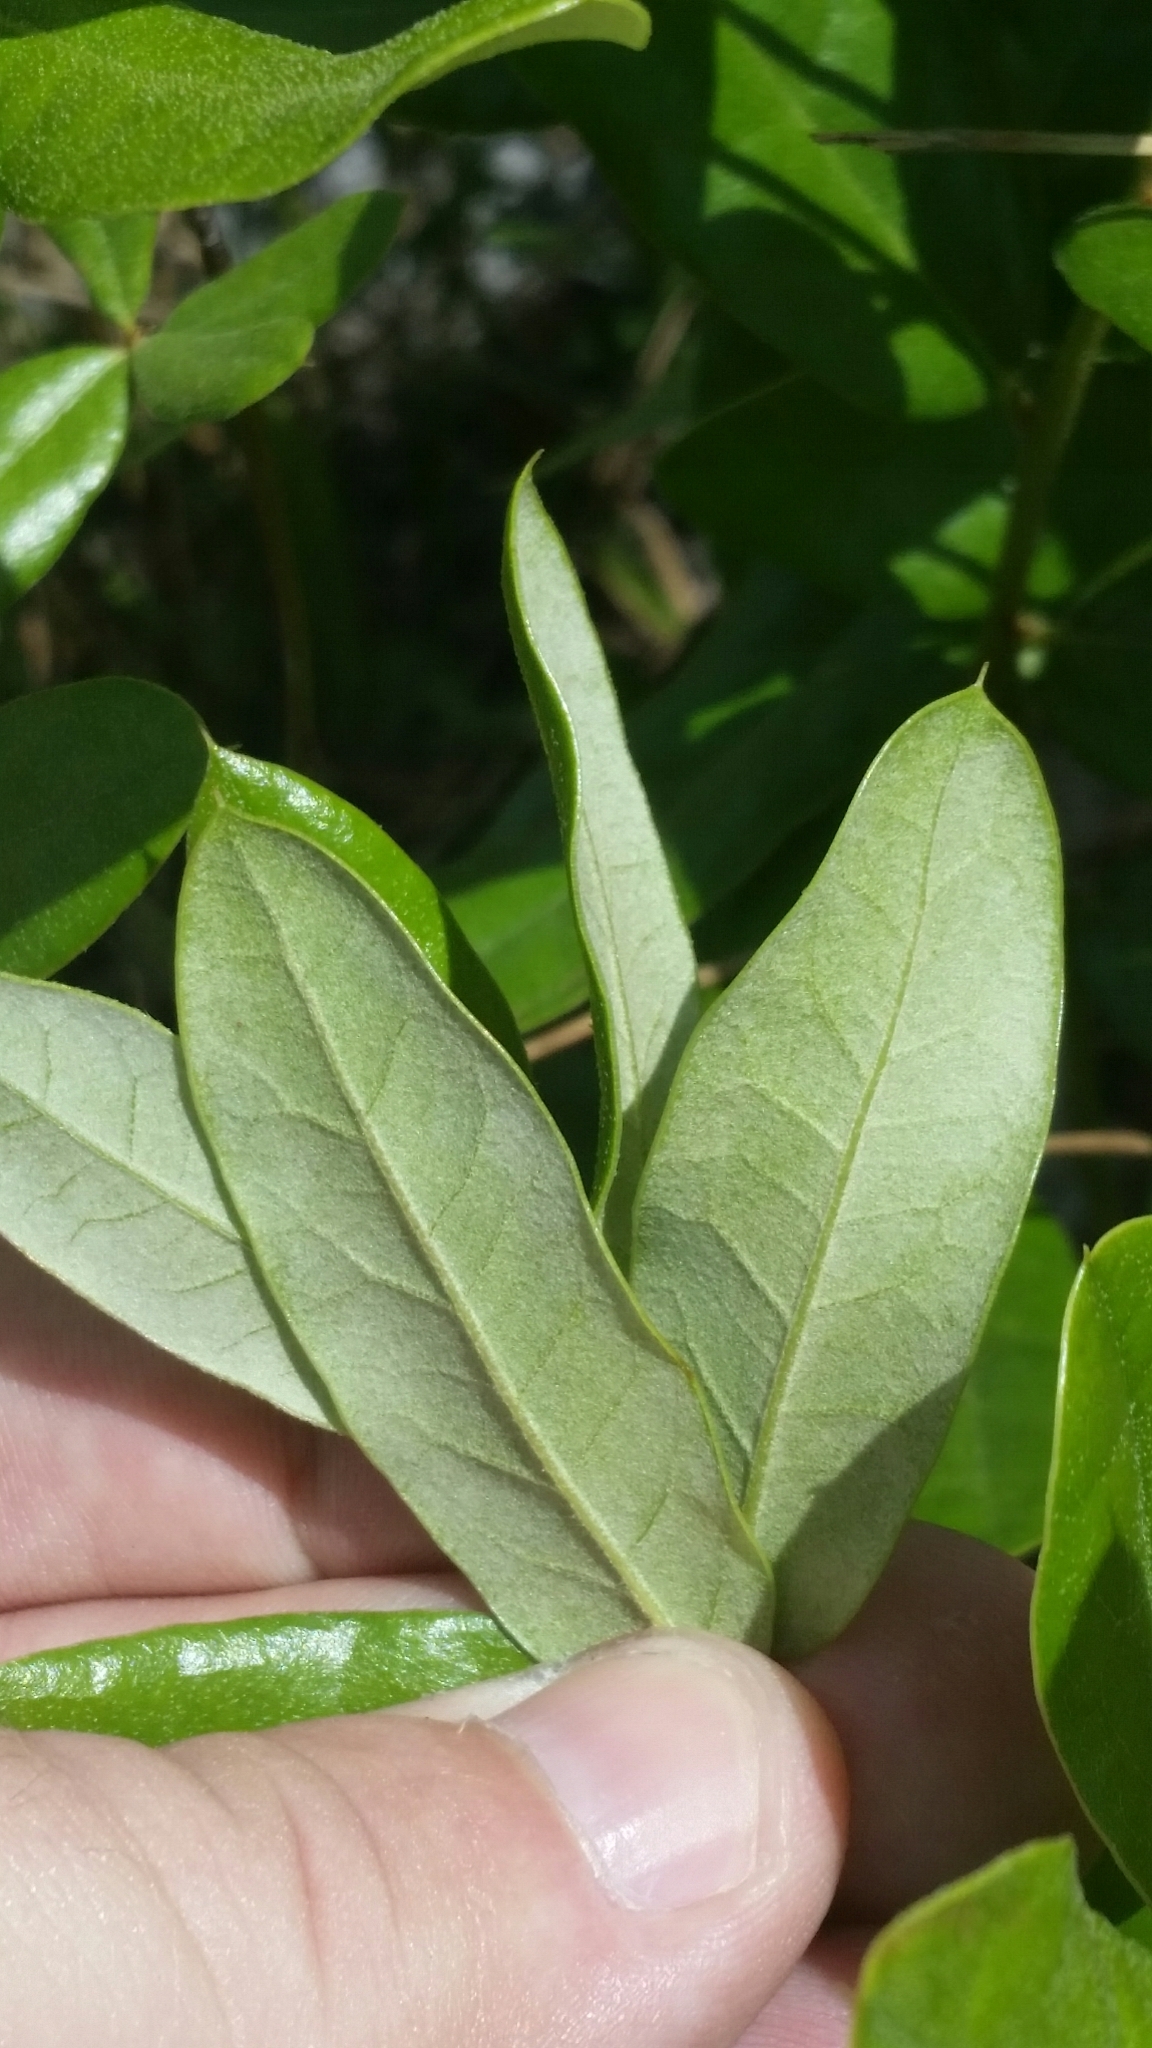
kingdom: Plantae
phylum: Tracheophyta
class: Magnoliopsida
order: Fagales
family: Fagaceae
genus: Quercus
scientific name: Quercus pumila
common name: Runner oak
